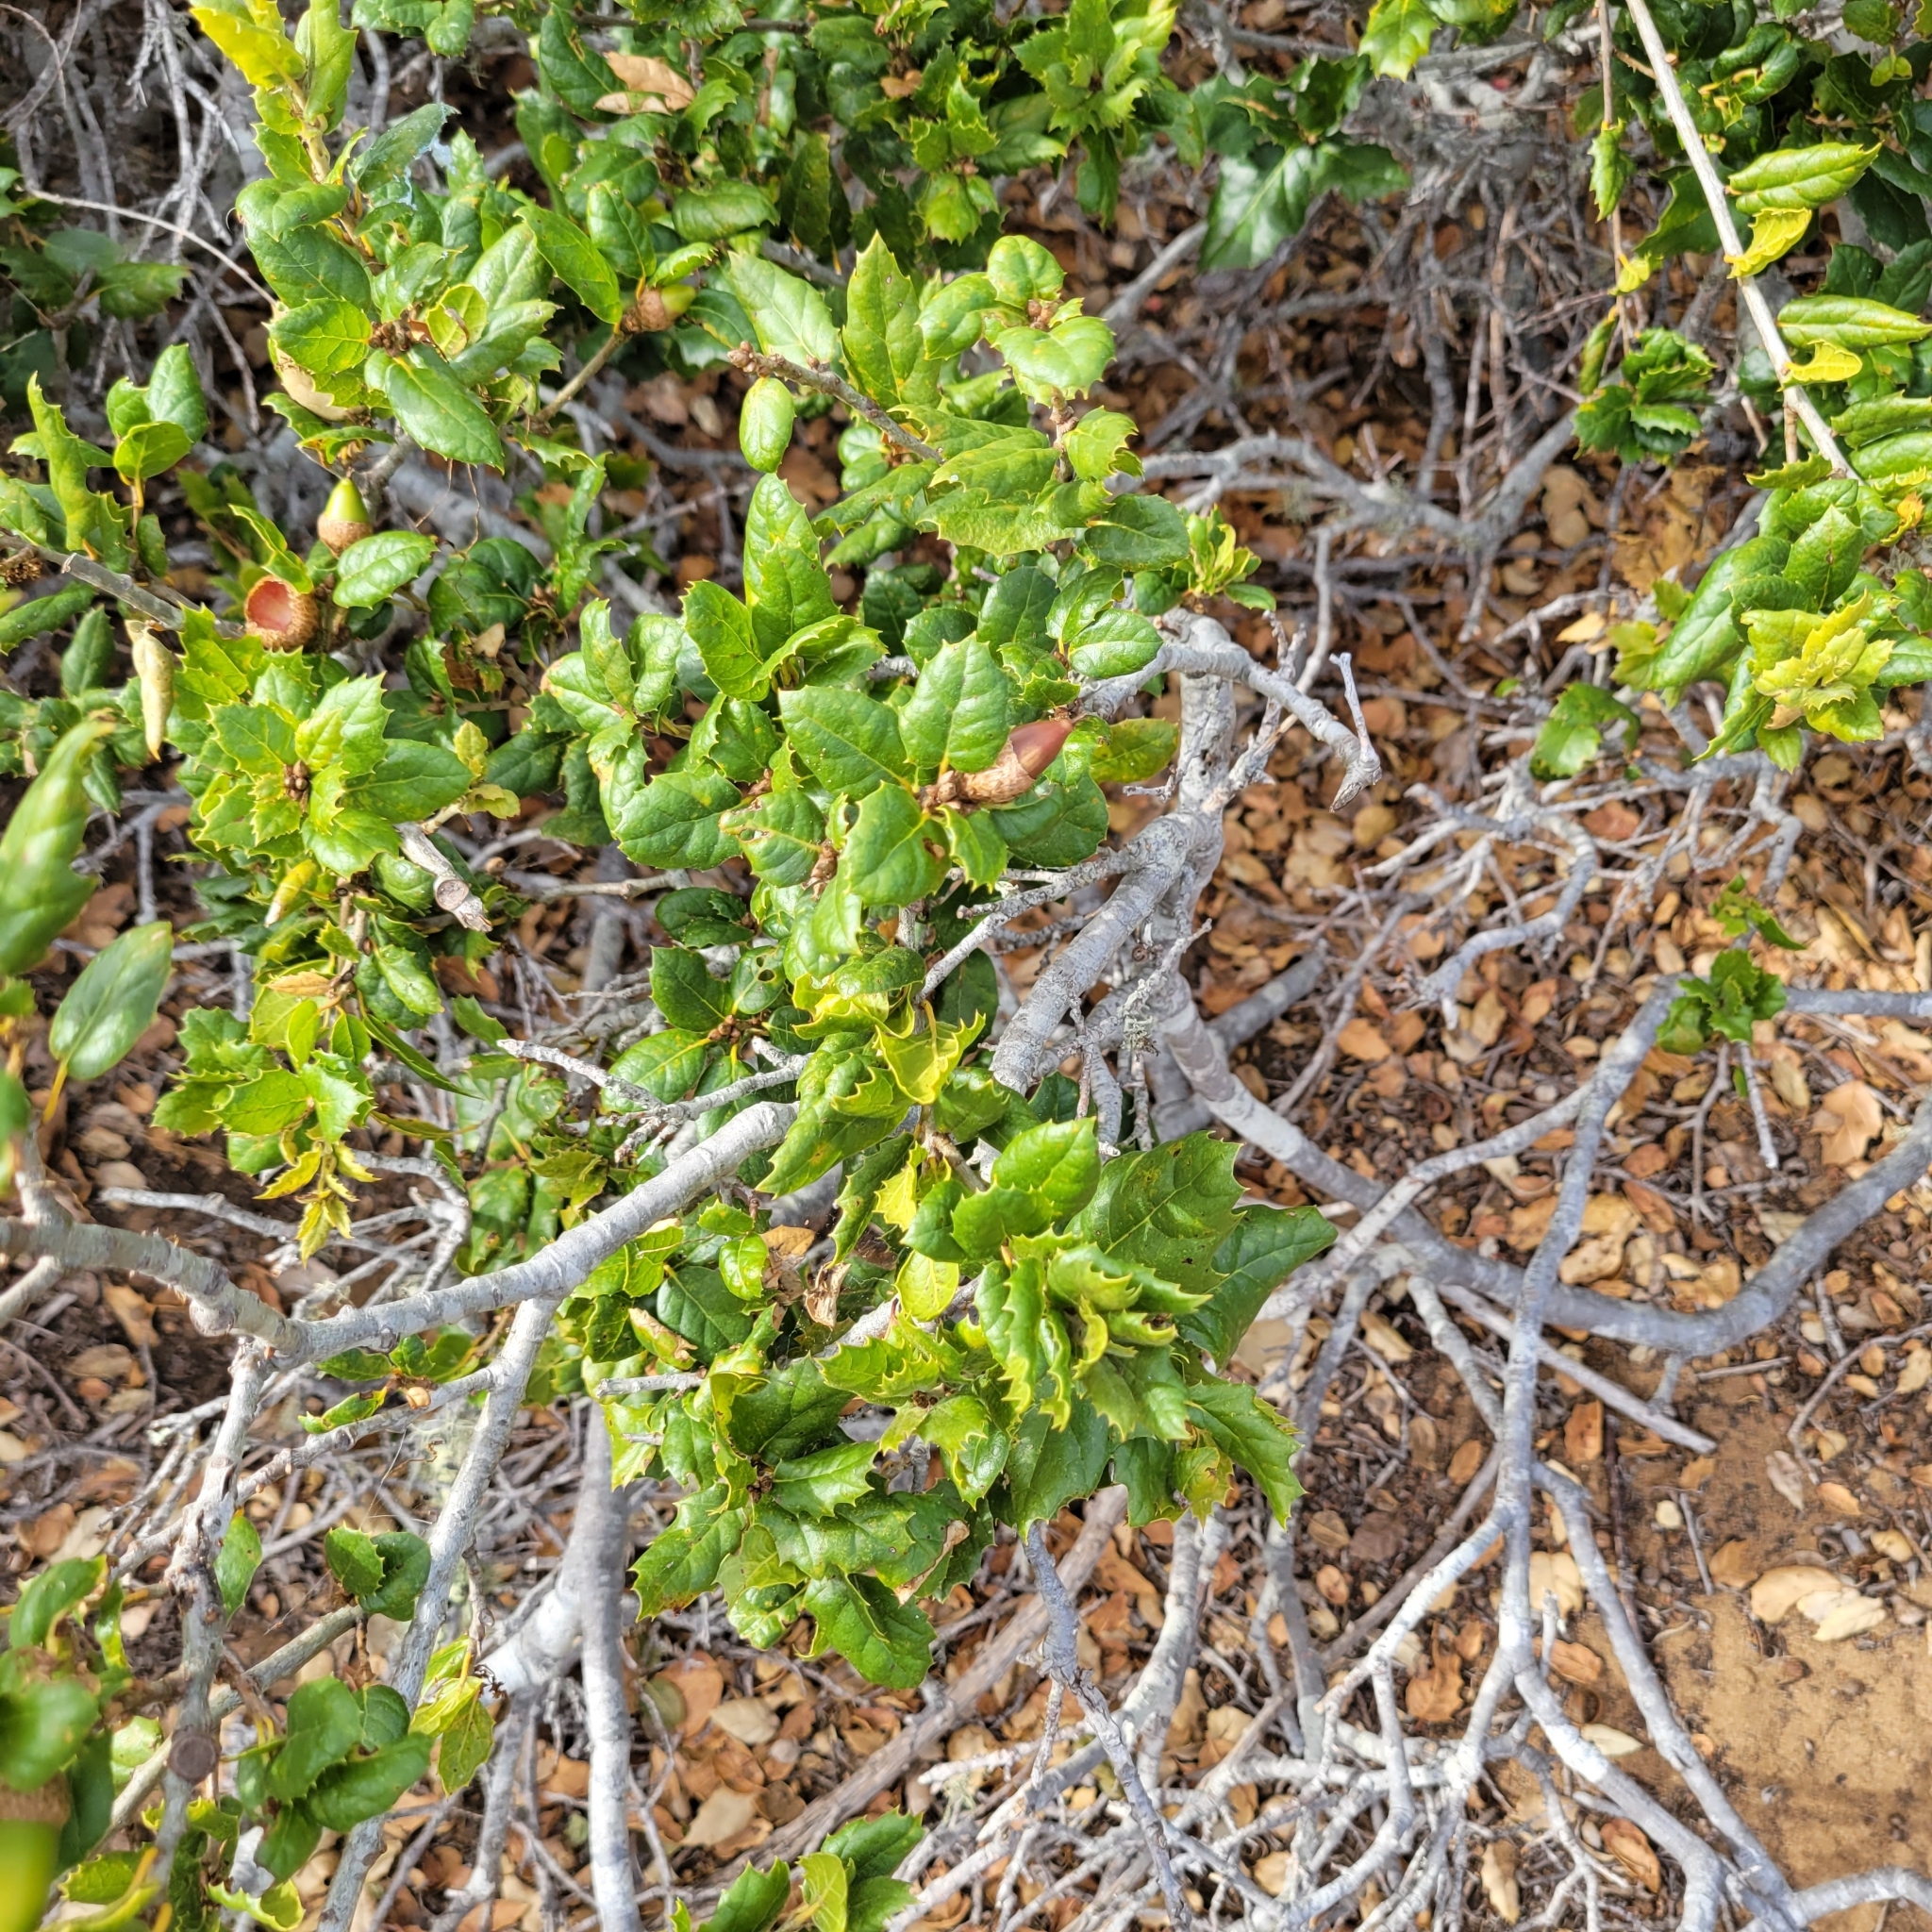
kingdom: Plantae
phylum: Tracheophyta
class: Magnoliopsida
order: Fagales
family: Fagaceae
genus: Quercus
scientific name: Quercus agrifolia
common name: California live oak
